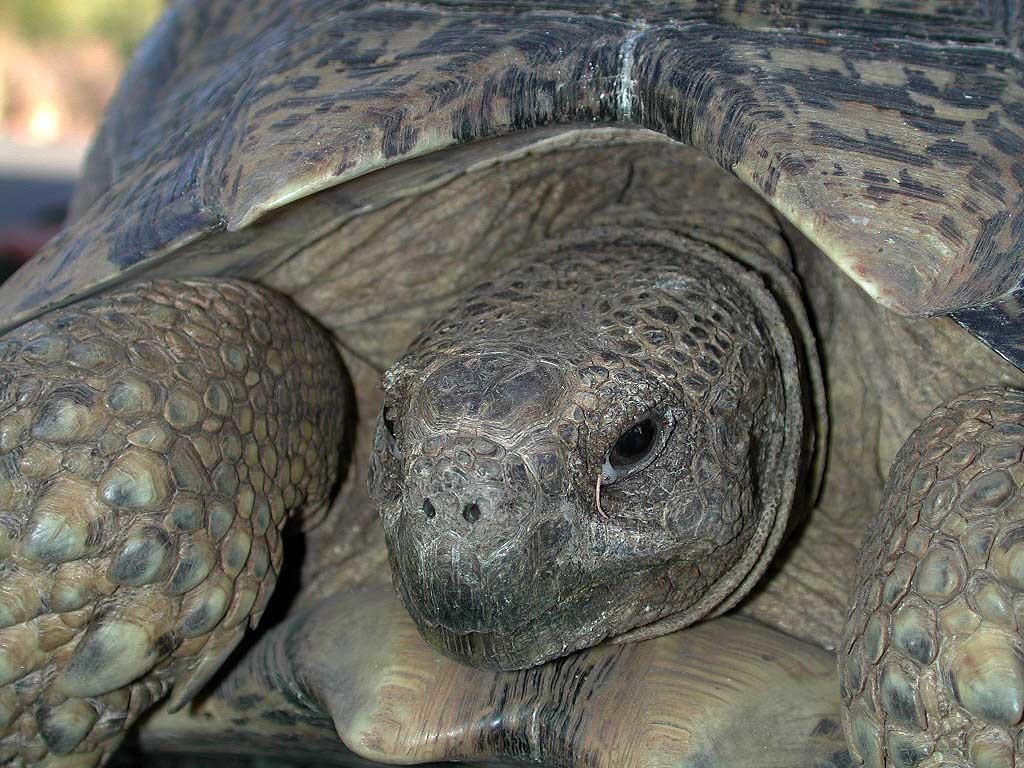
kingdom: Animalia
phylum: Chordata
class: Testudines
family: Testudinidae
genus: Stigmochelys
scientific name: Stigmochelys pardalis
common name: Leopard tortoise
